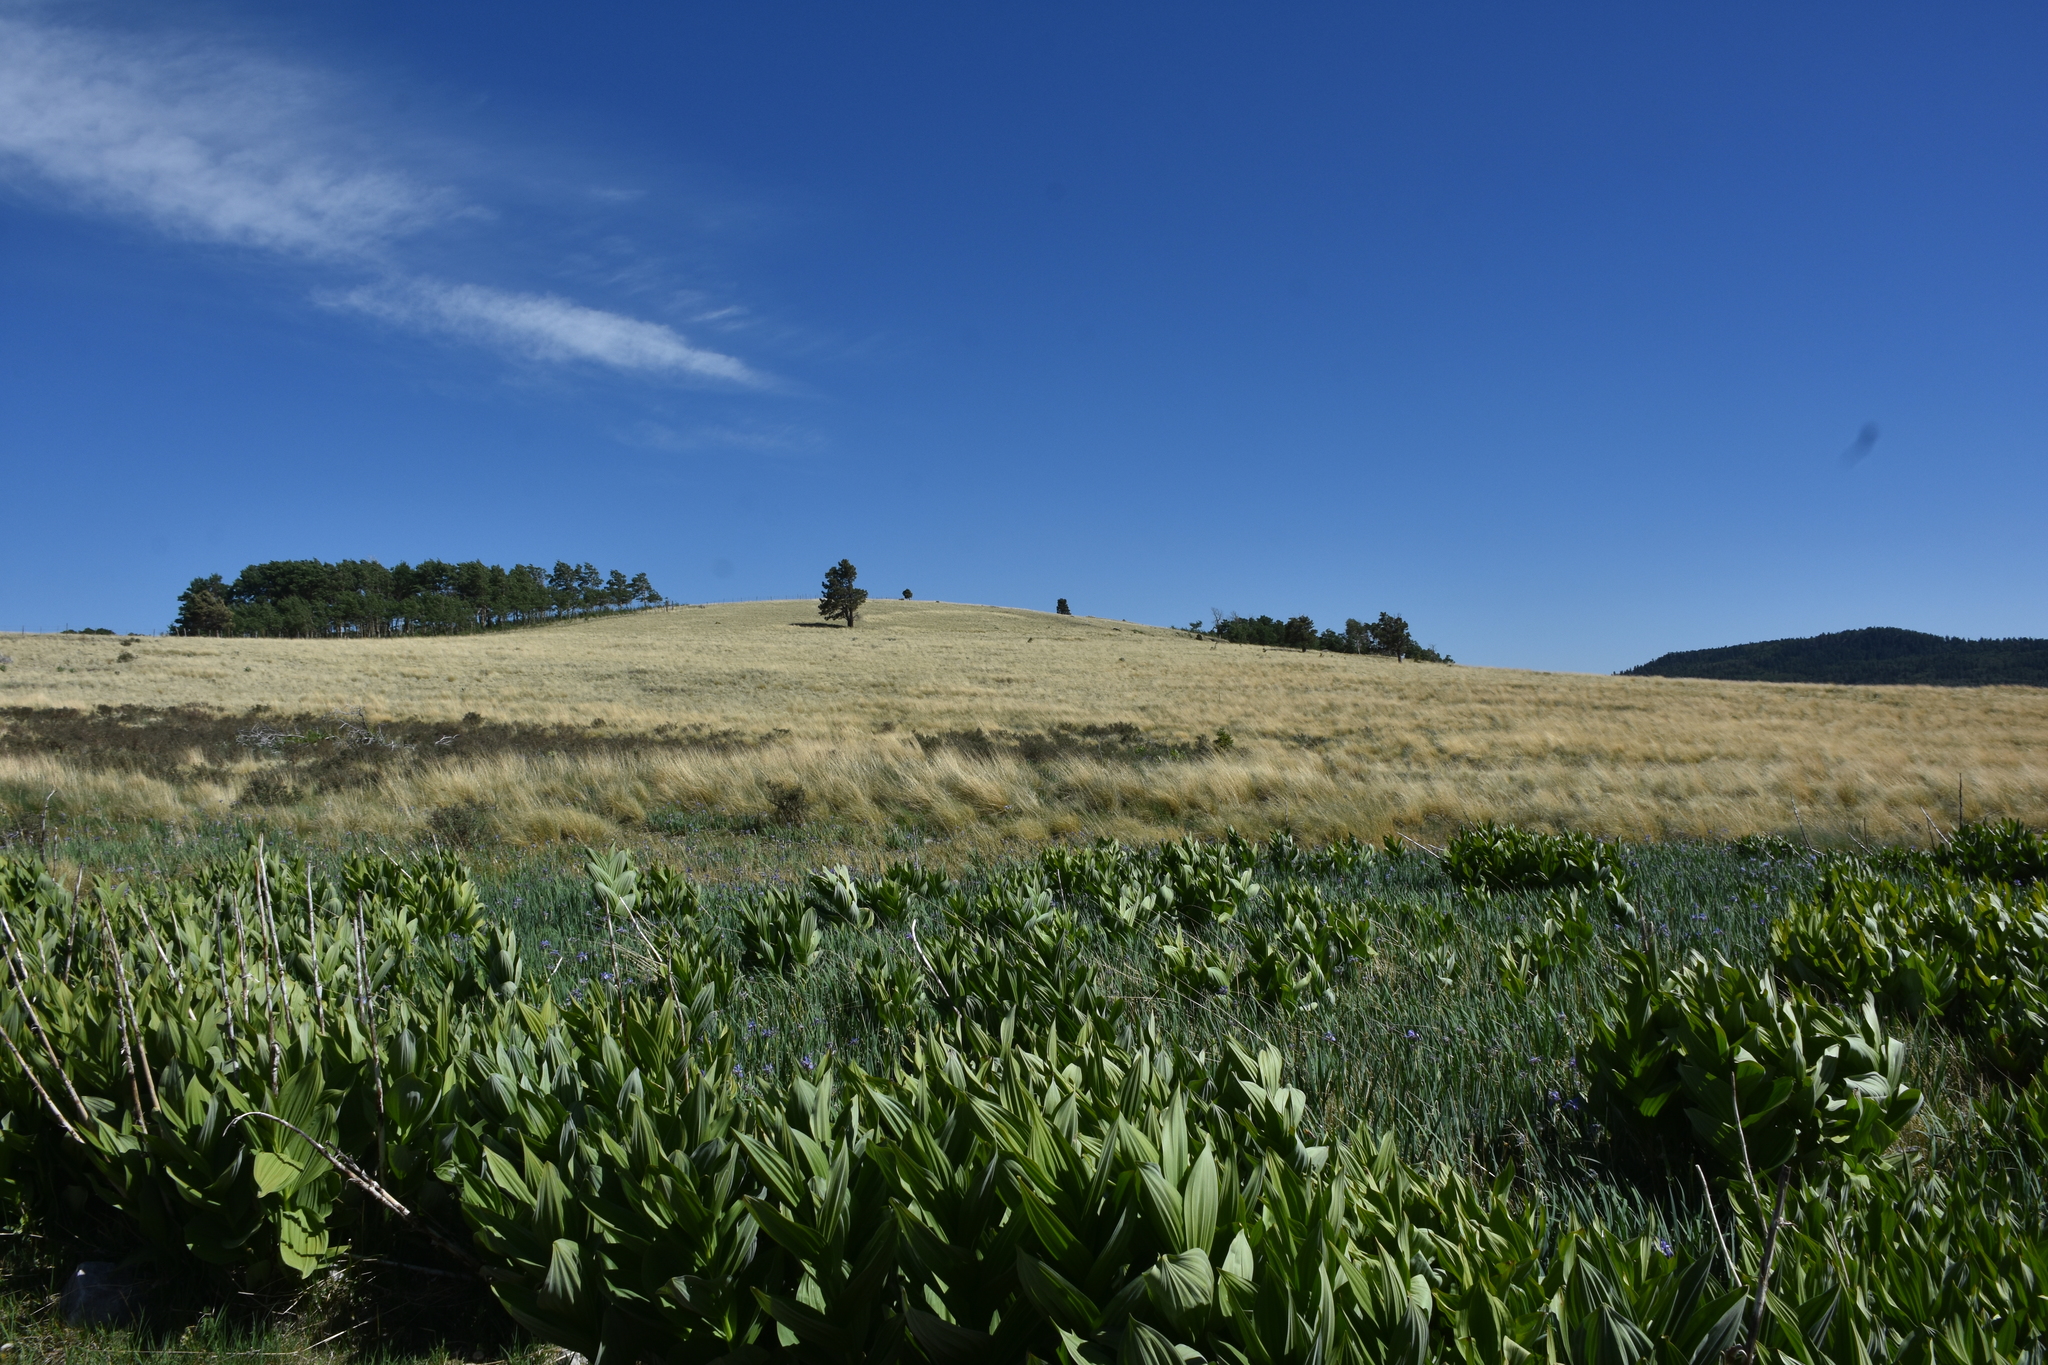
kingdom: Plantae
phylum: Tracheophyta
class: Liliopsida
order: Liliales
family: Melanthiaceae
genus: Veratrum
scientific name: Veratrum californicum
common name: California veratrum
